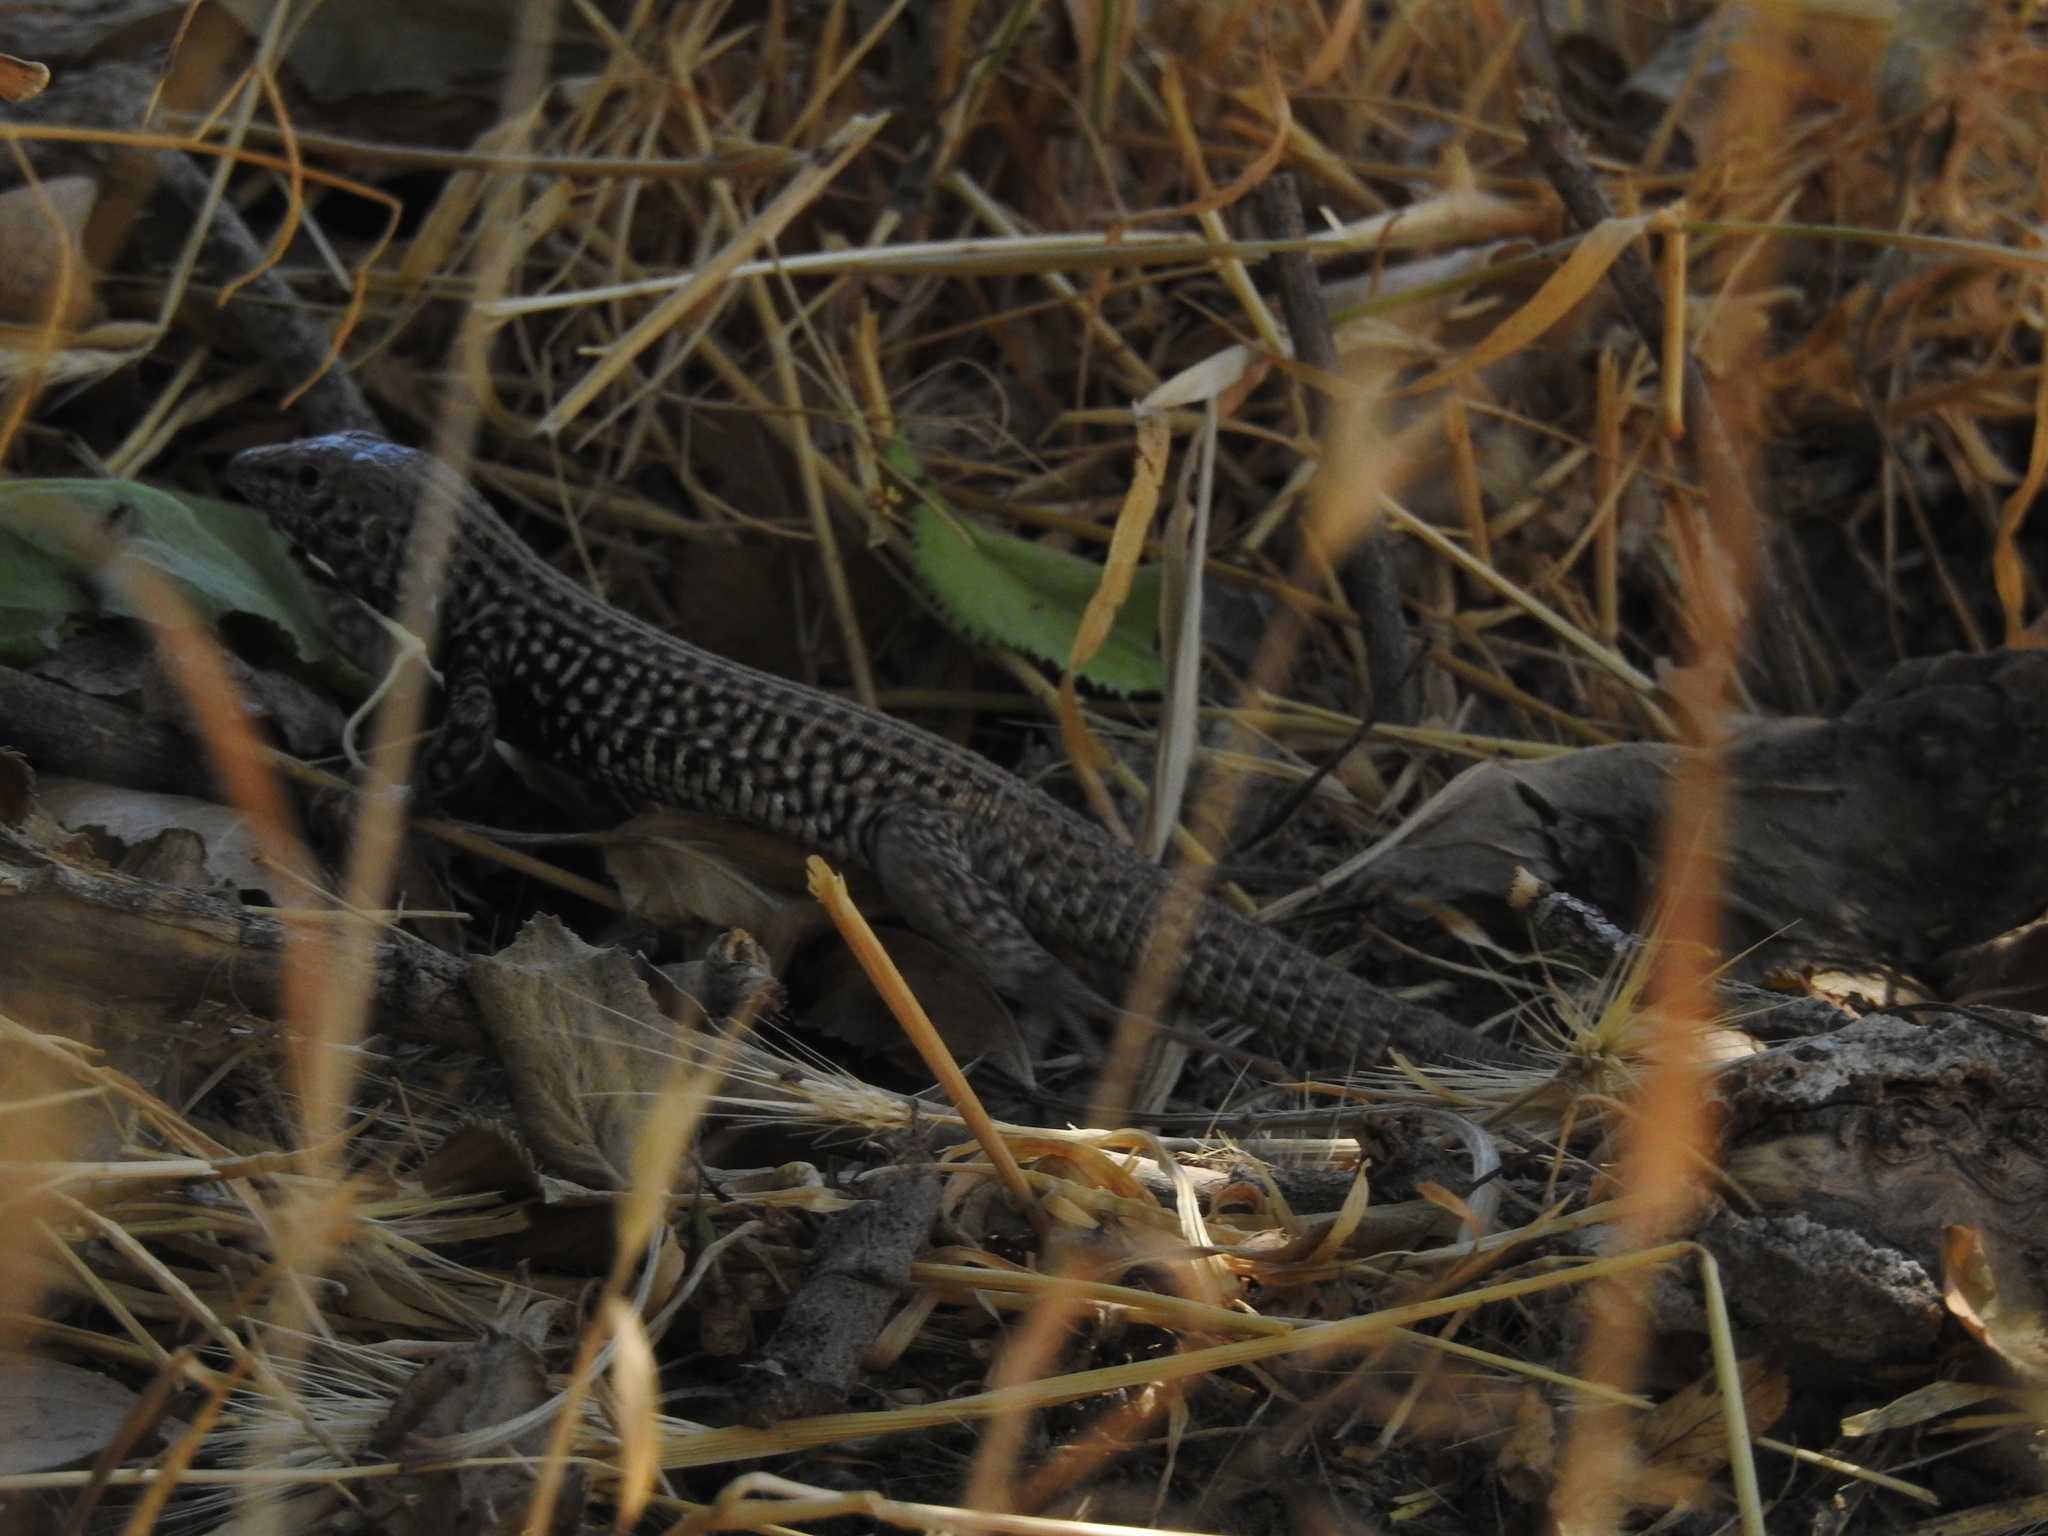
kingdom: Animalia
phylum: Chordata
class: Squamata
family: Teiidae
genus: Aspidoscelis
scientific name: Aspidoscelis tigris
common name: Tiger whiptail
